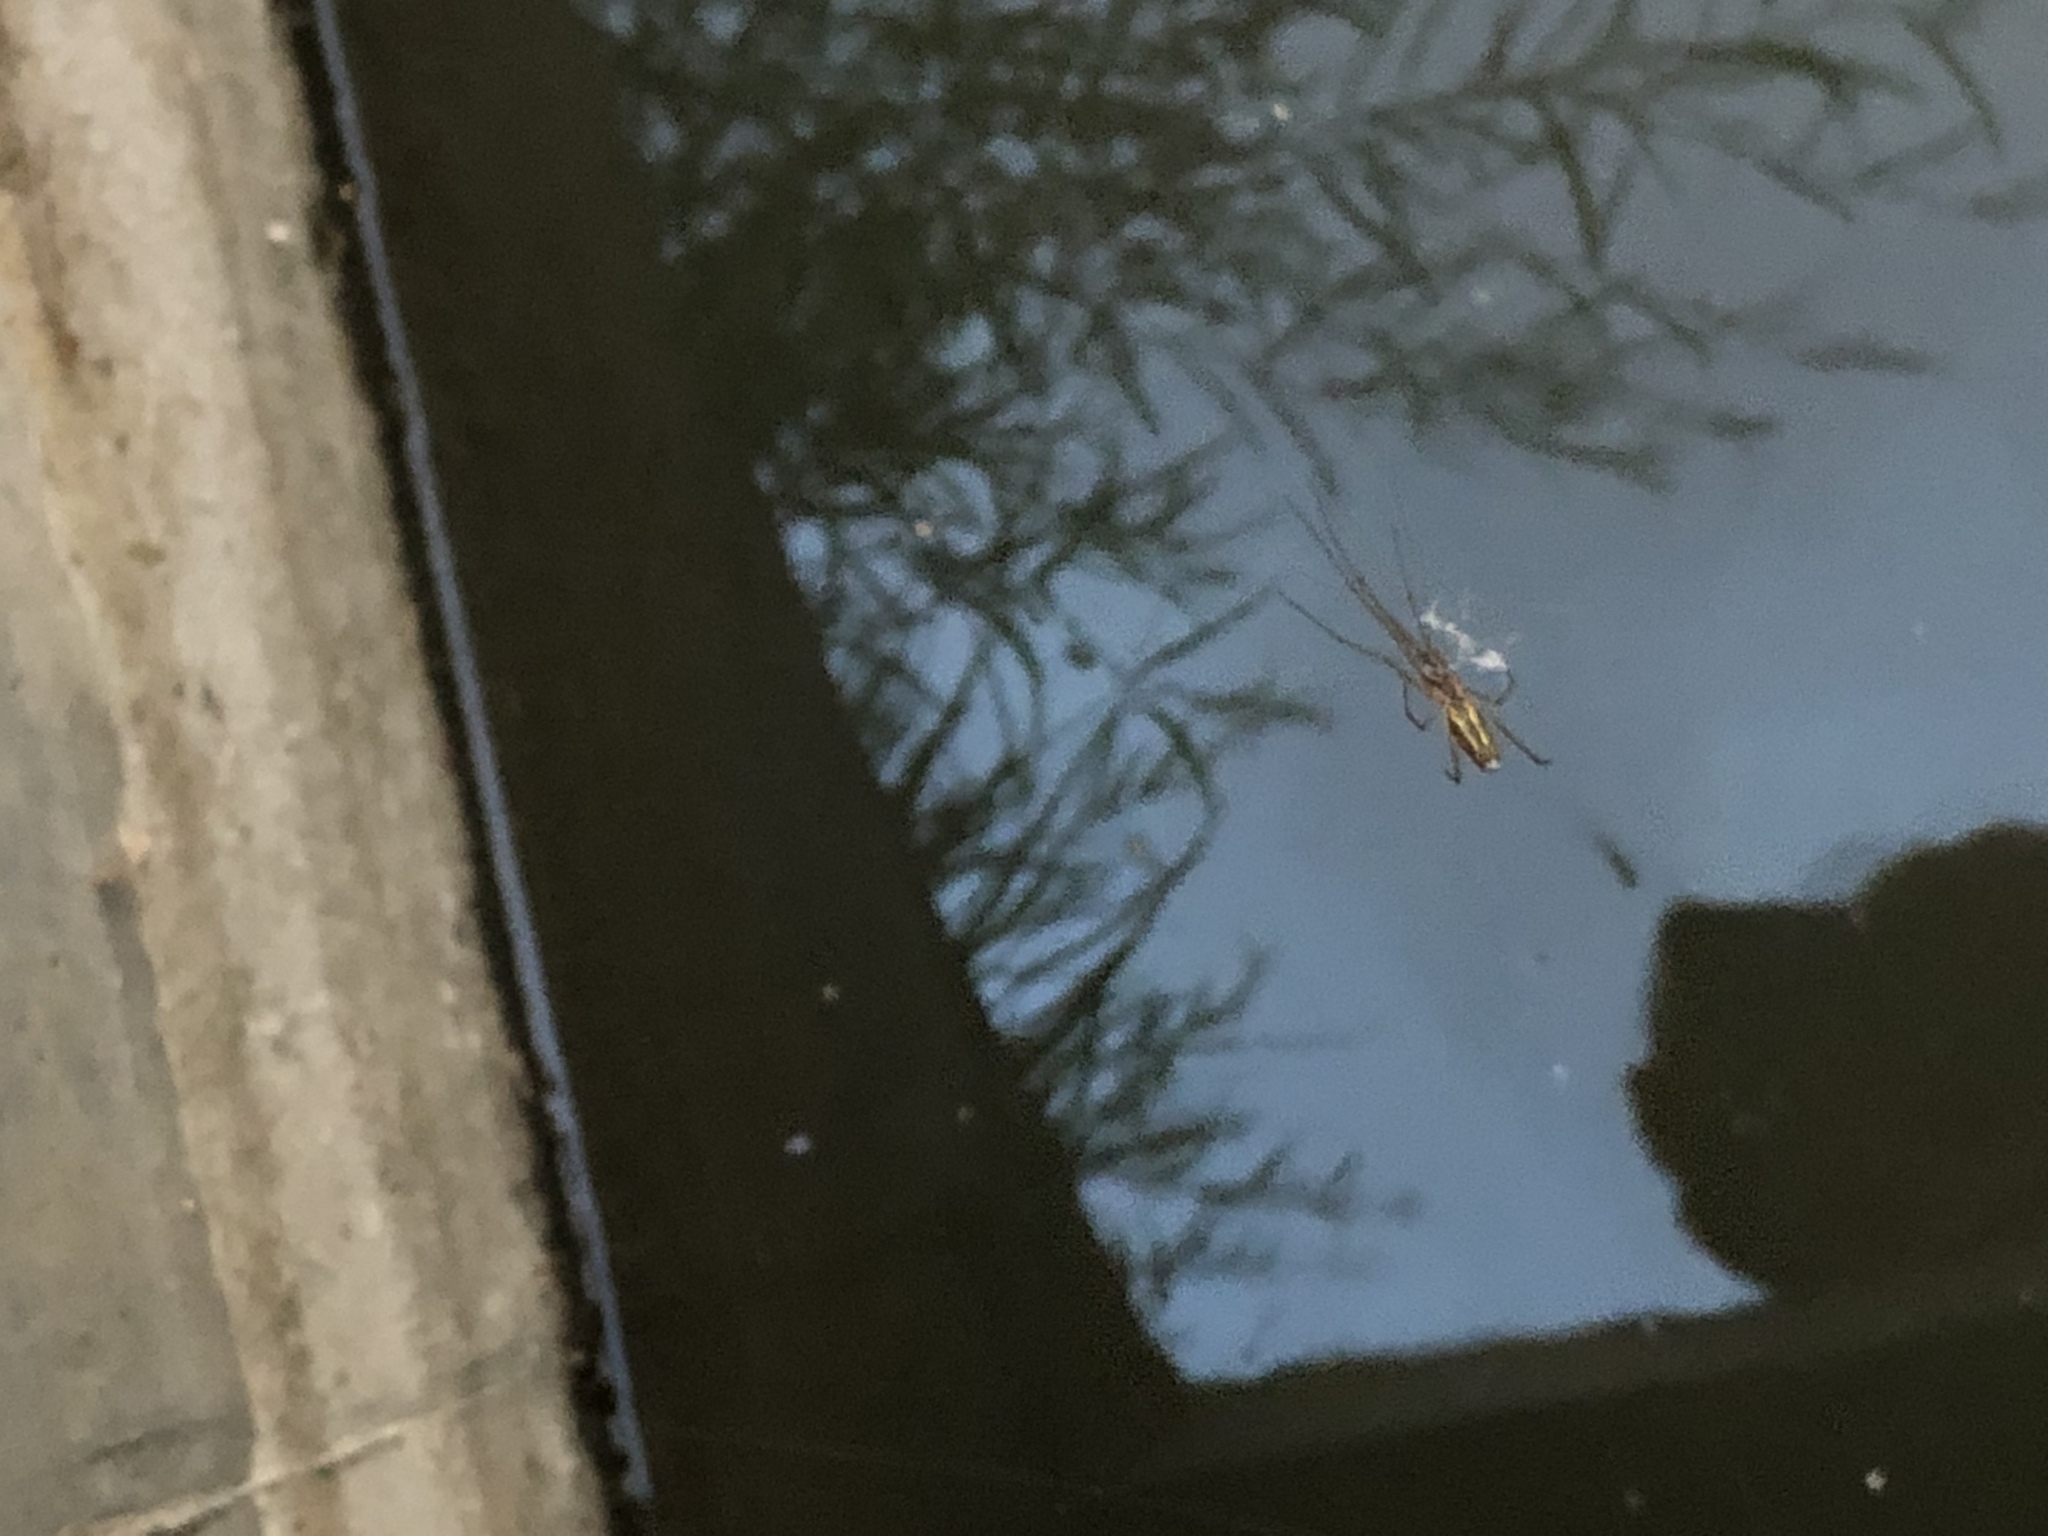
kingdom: Animalia
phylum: Arthropoda
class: Arachnida
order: Araneae
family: Tetragnathidae
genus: Tetragnatha
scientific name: Tetragnatha
